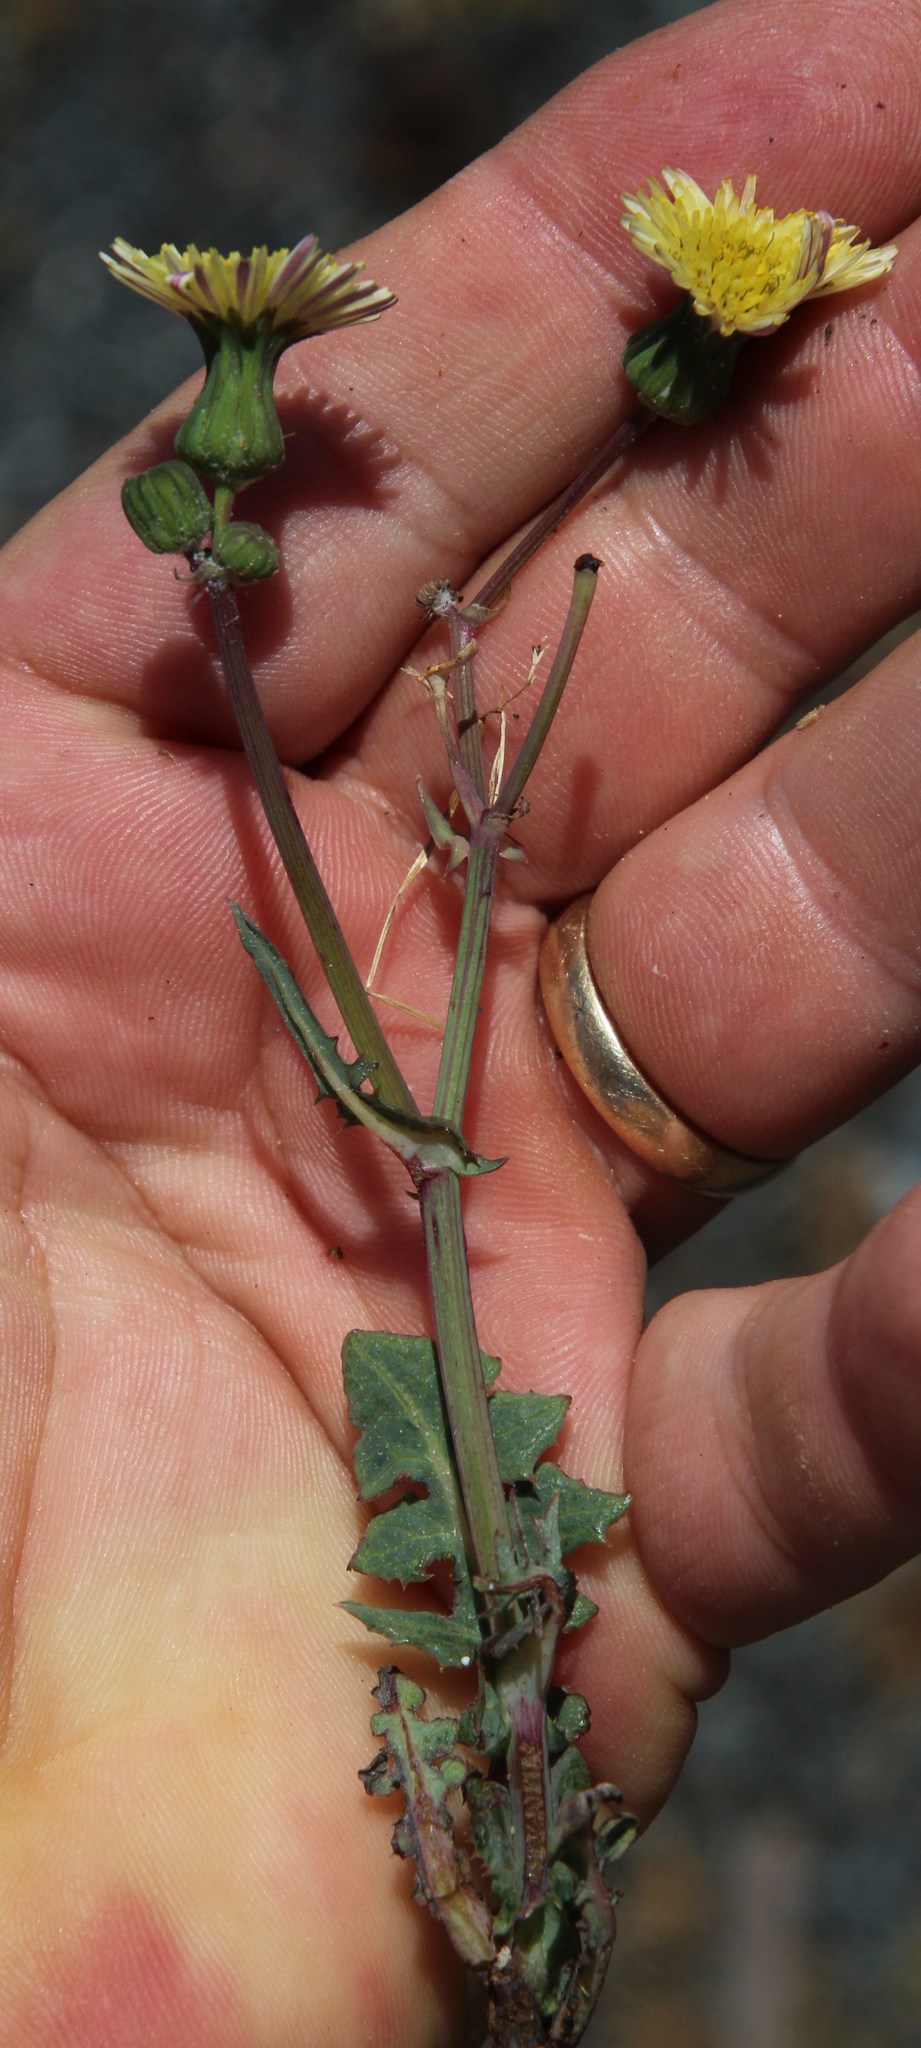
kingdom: Plantae
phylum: Tracheophyta
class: Magnoliopsida
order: Asterales
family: Asteraceae
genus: Sonchus
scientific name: Sonchus oleraceus
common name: Common sowthistle
